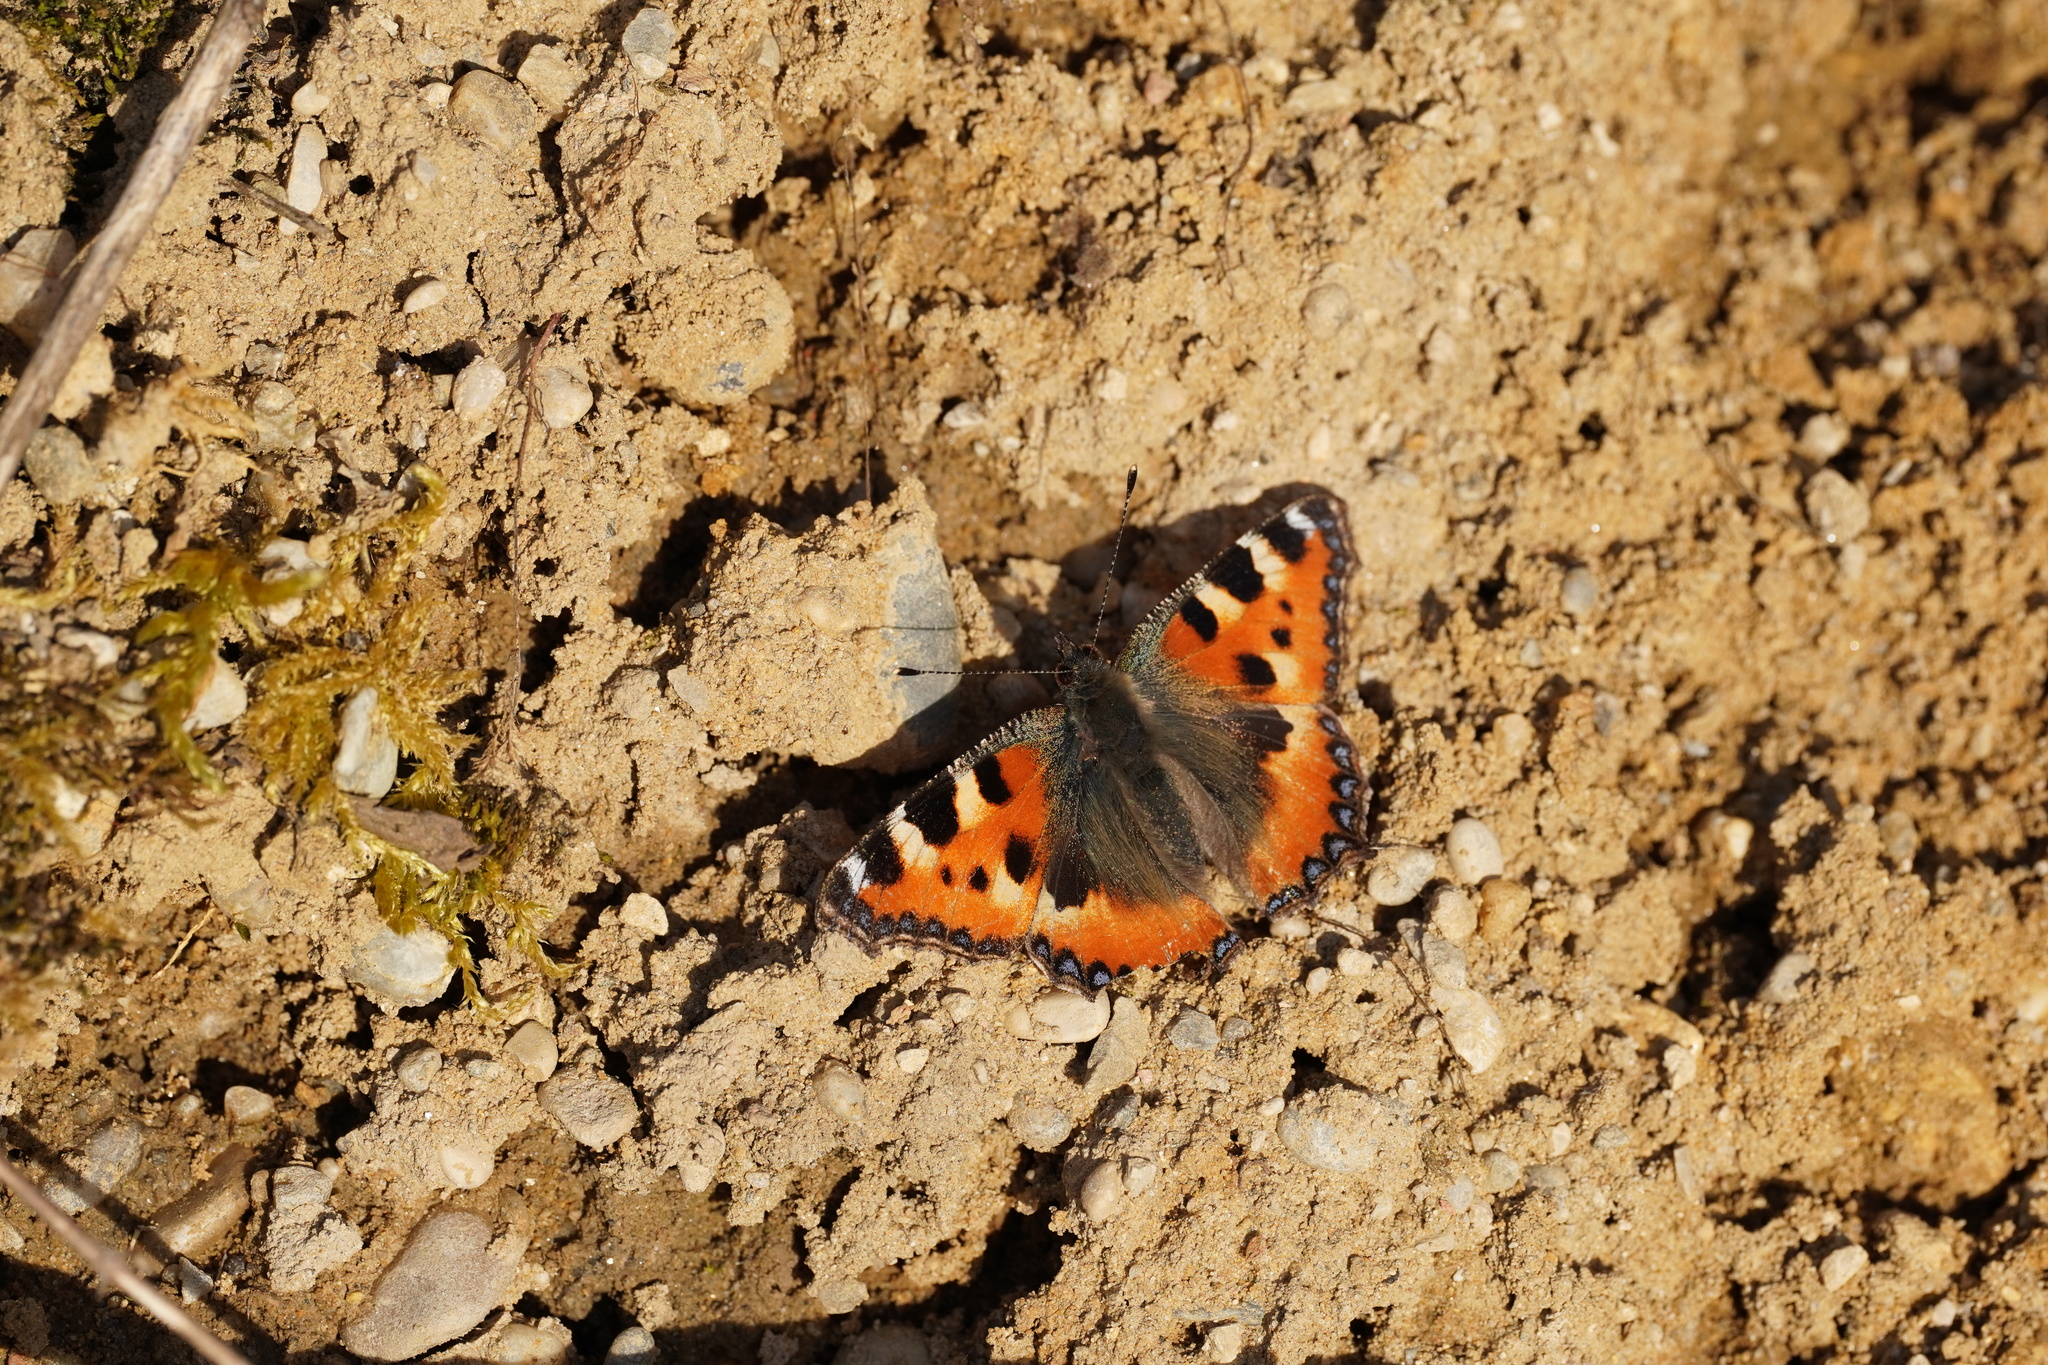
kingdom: Animalia
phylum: Arthropoda
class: Insecta
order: Lepidoptera
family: Nymphalidae
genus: Aglais
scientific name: Aglais urticae
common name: Small tortoiseshell
